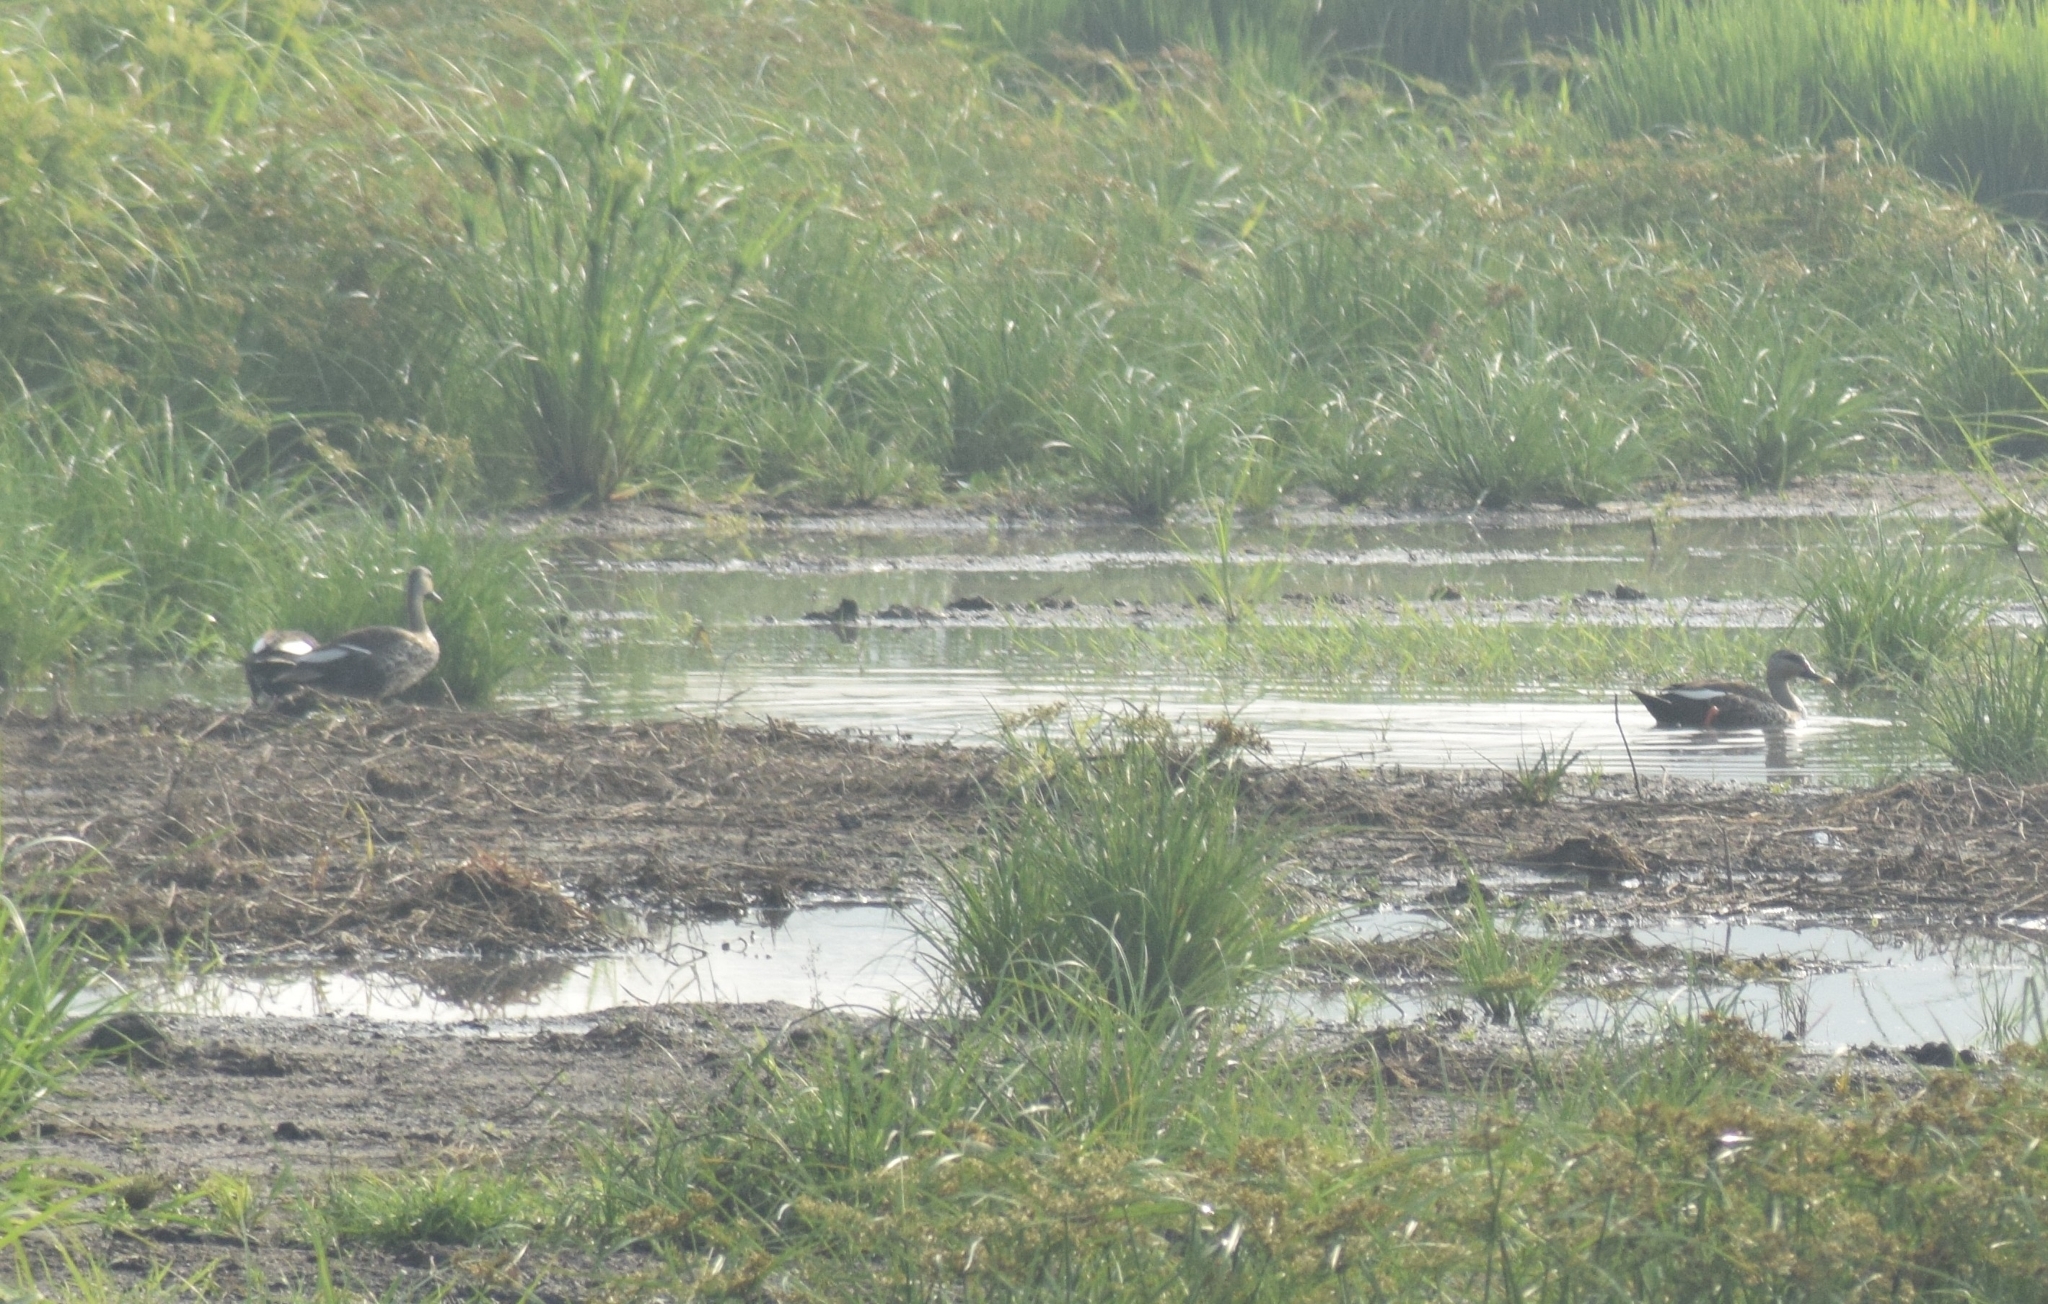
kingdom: Animalia
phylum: Chordata
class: Aves
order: Anseriformes
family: Anatidae
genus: Anas
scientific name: Anas poecilorhyncha
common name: Indian spot-billed duck
